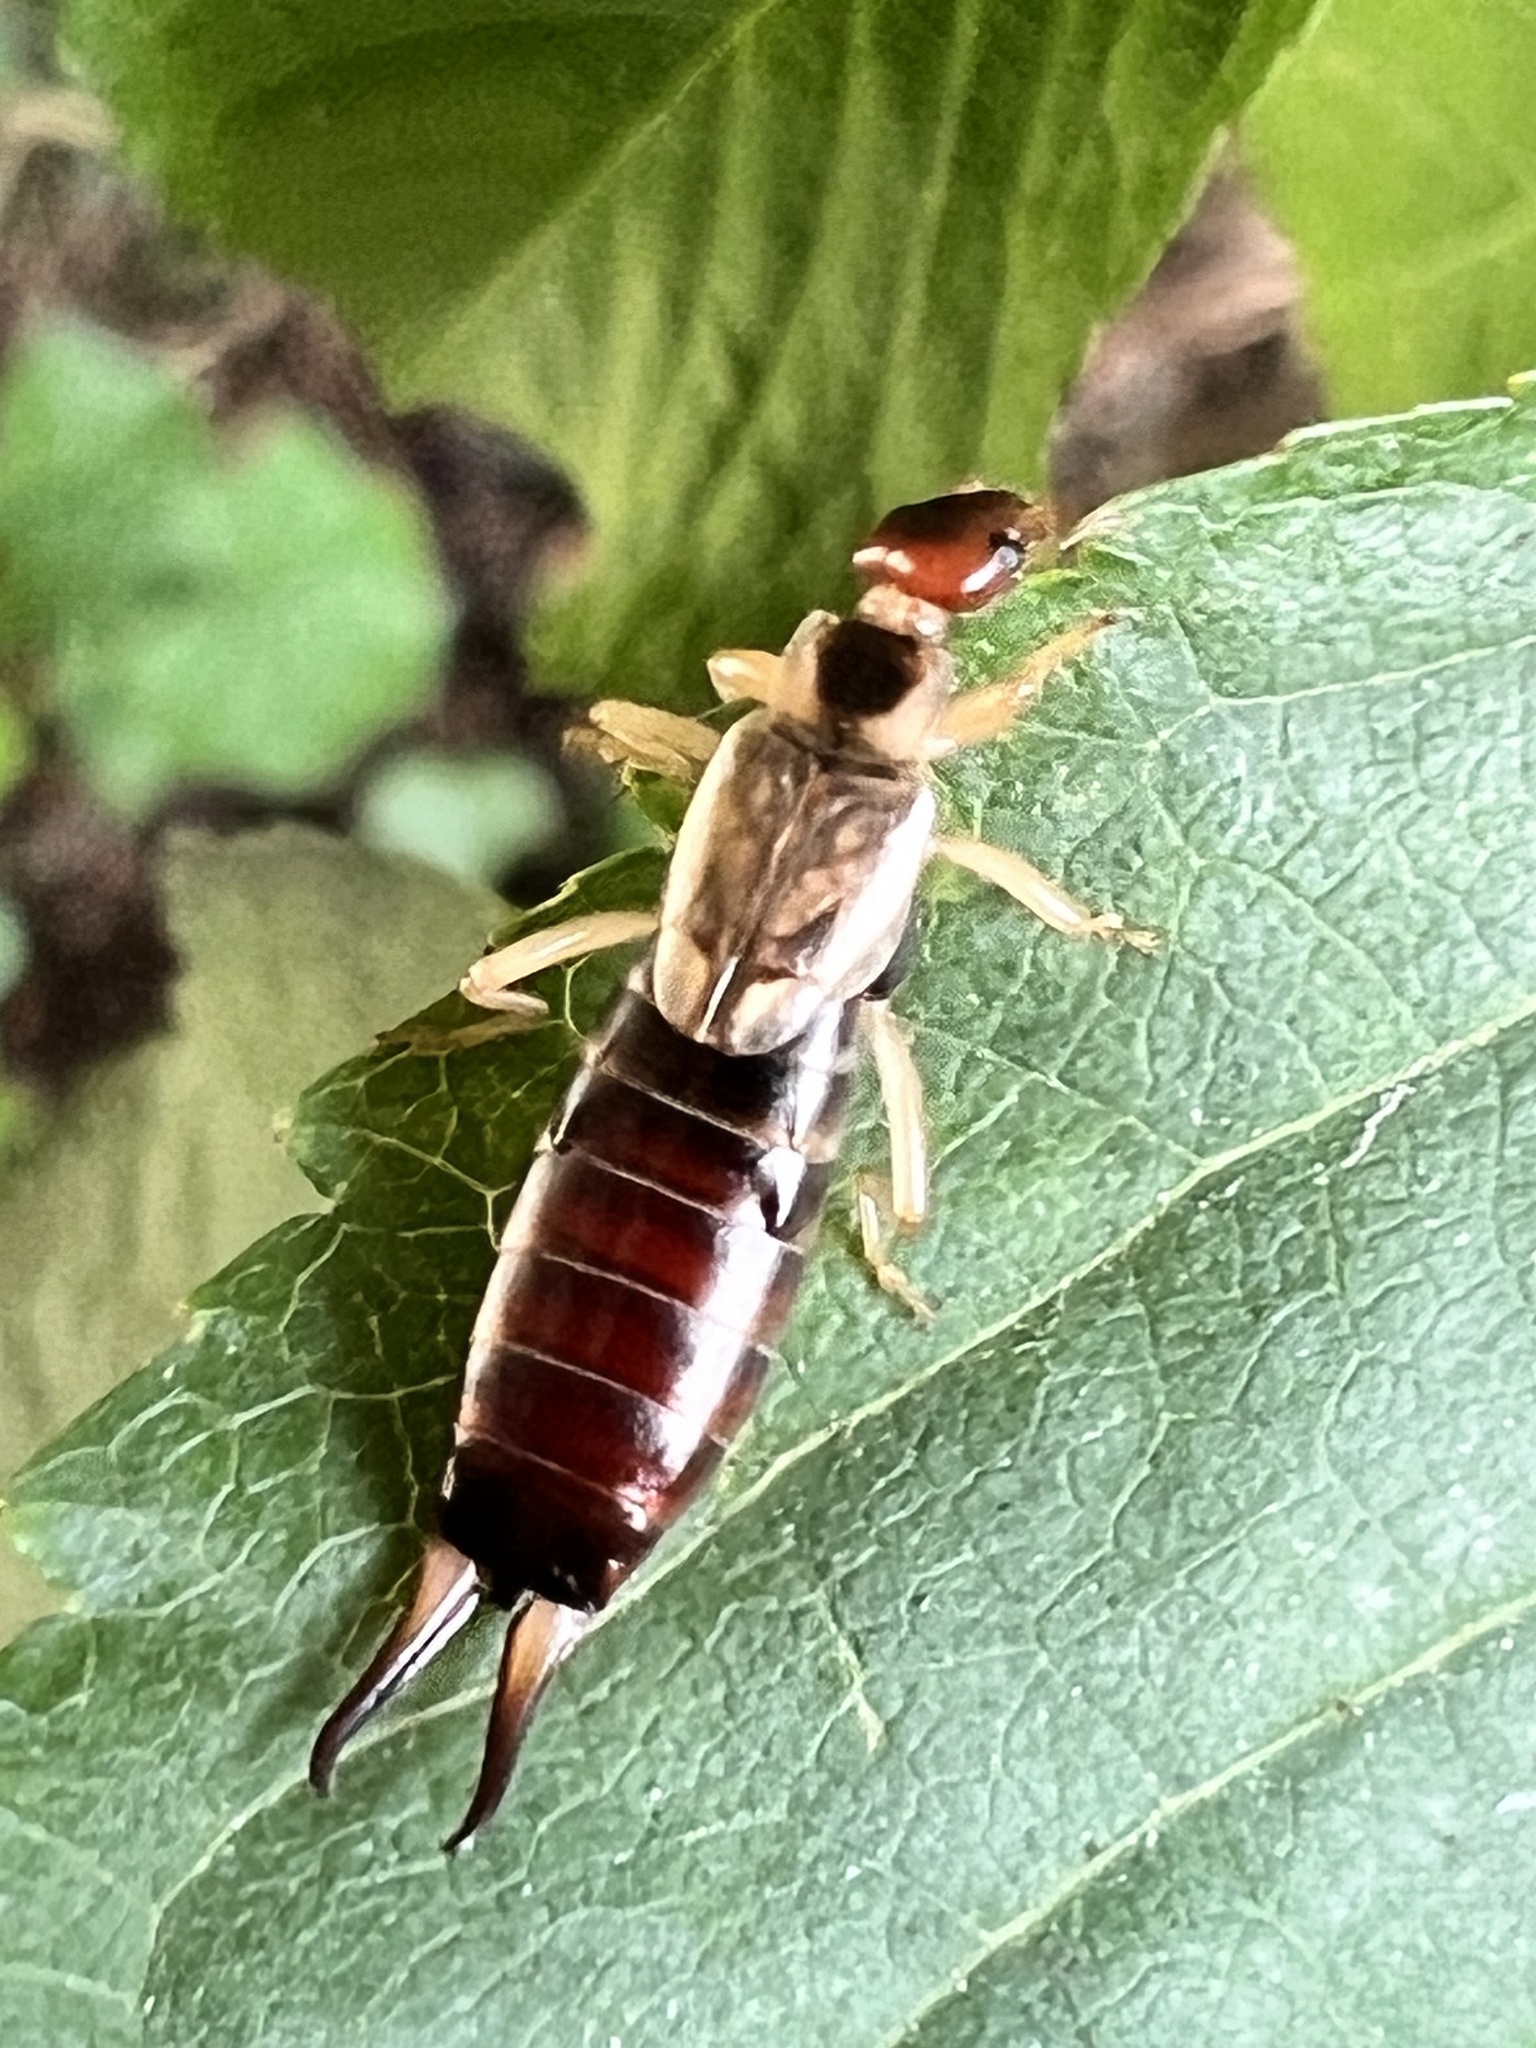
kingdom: Animalia
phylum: Arthropoda
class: Insecta
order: Dermaptera
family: Forficulidae
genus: Forficula
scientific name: Forficula dentata
